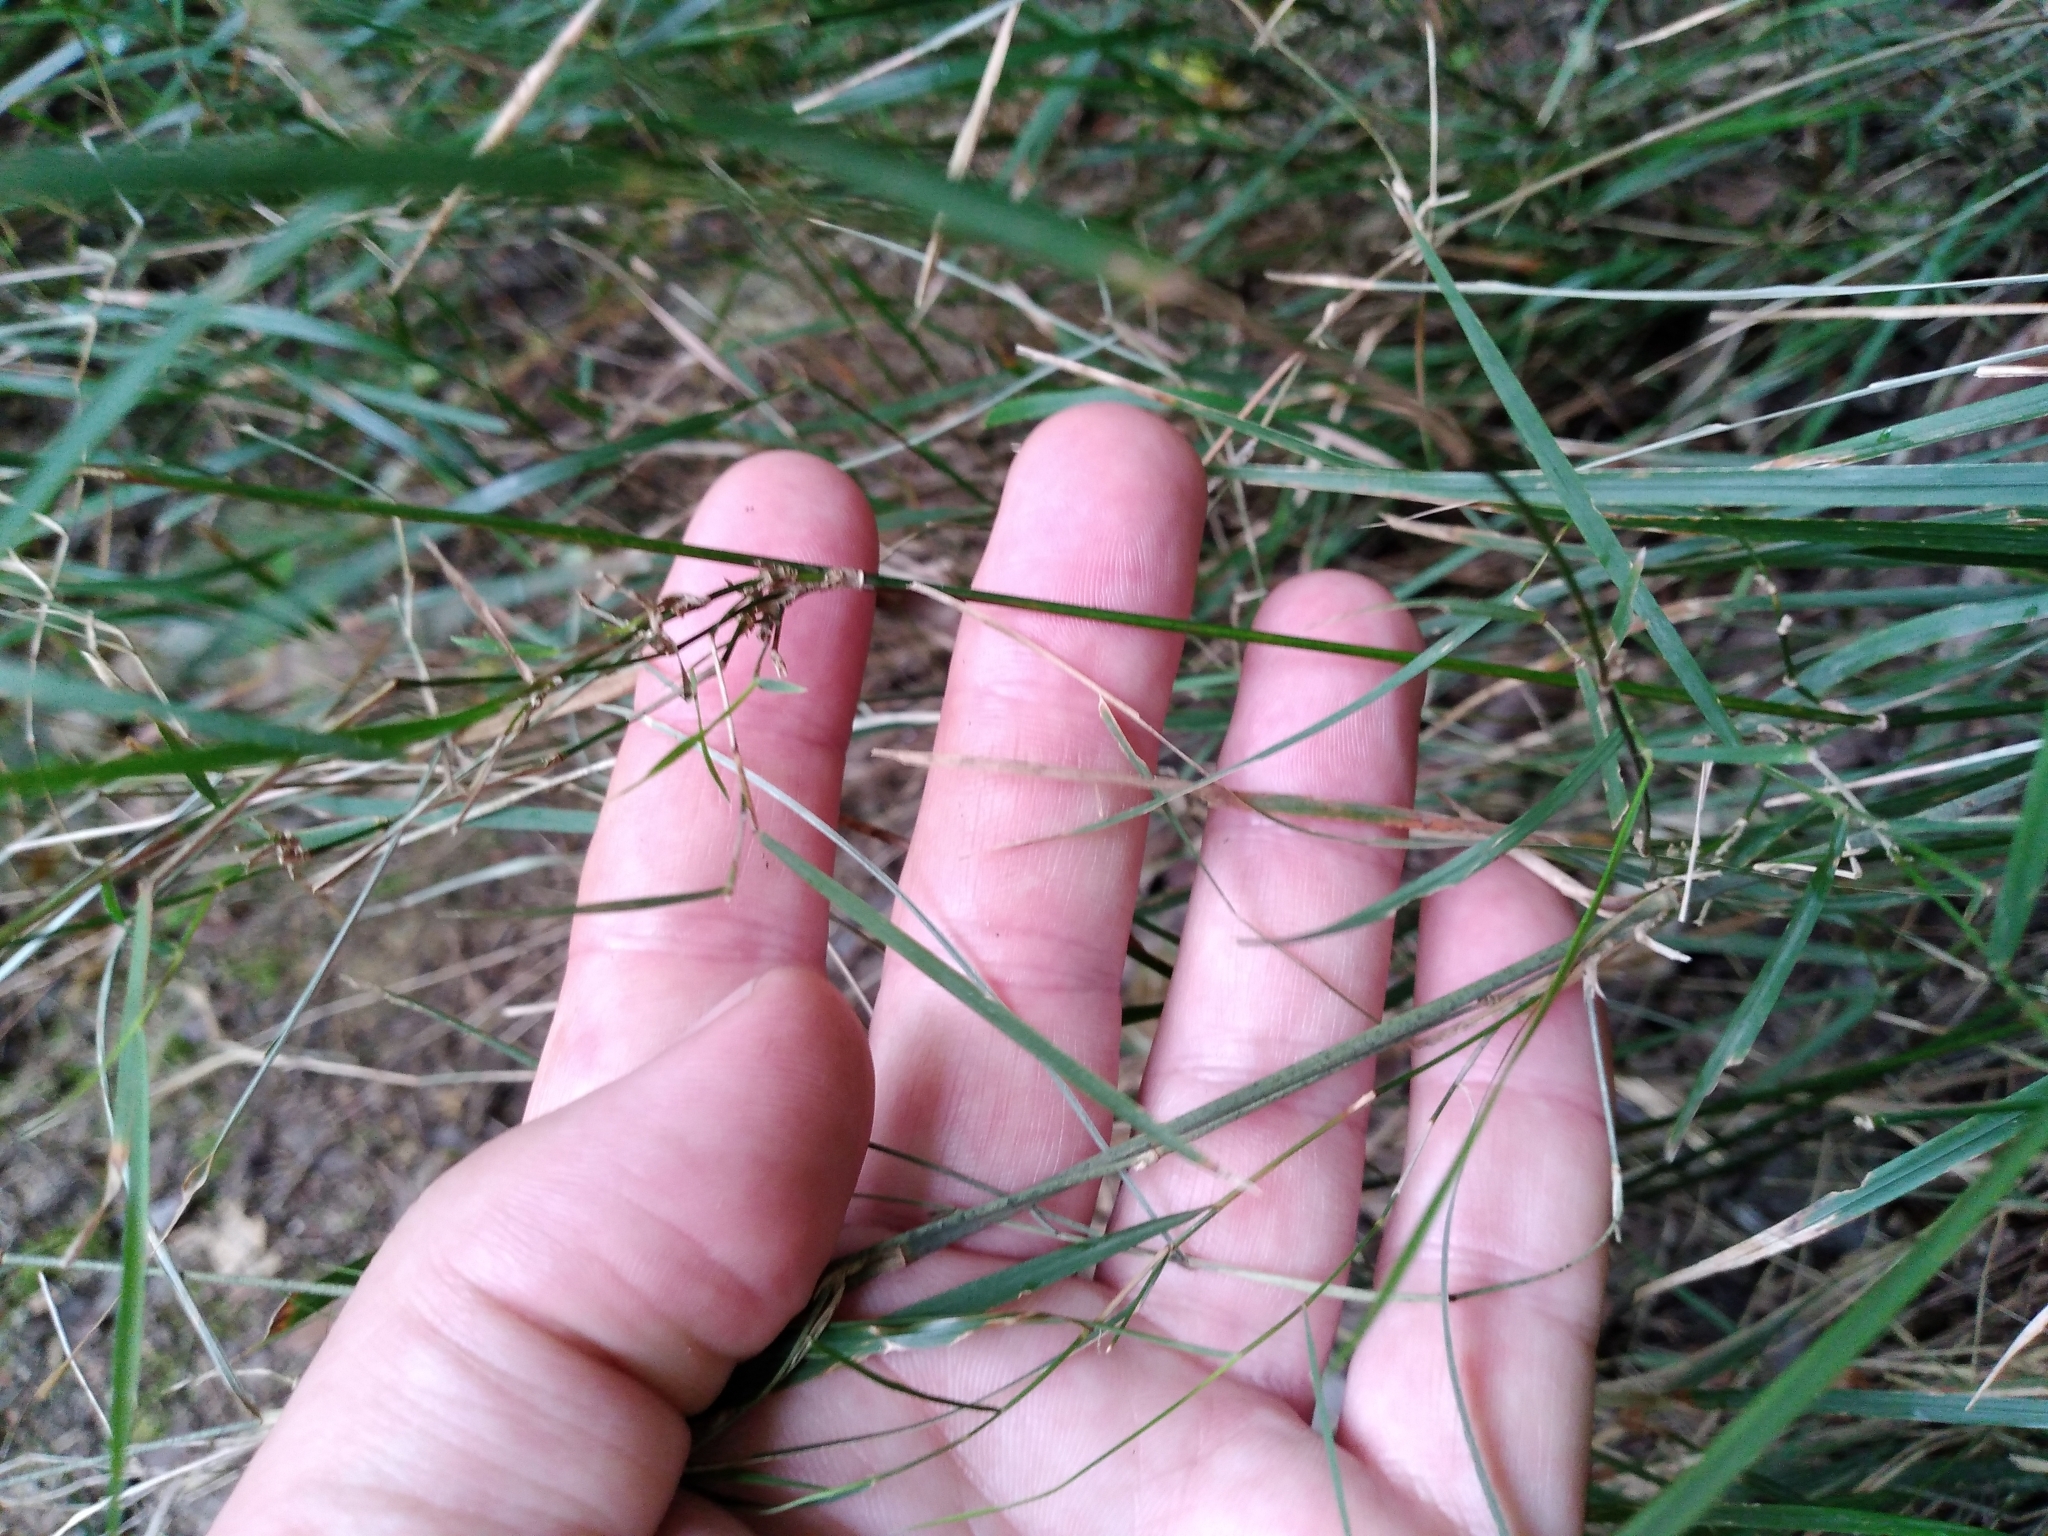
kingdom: Plantae
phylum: Tracheophyta
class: Liliopsida
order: Poales
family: Poaceae
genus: Microlaena
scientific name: Microlaena polynoda
